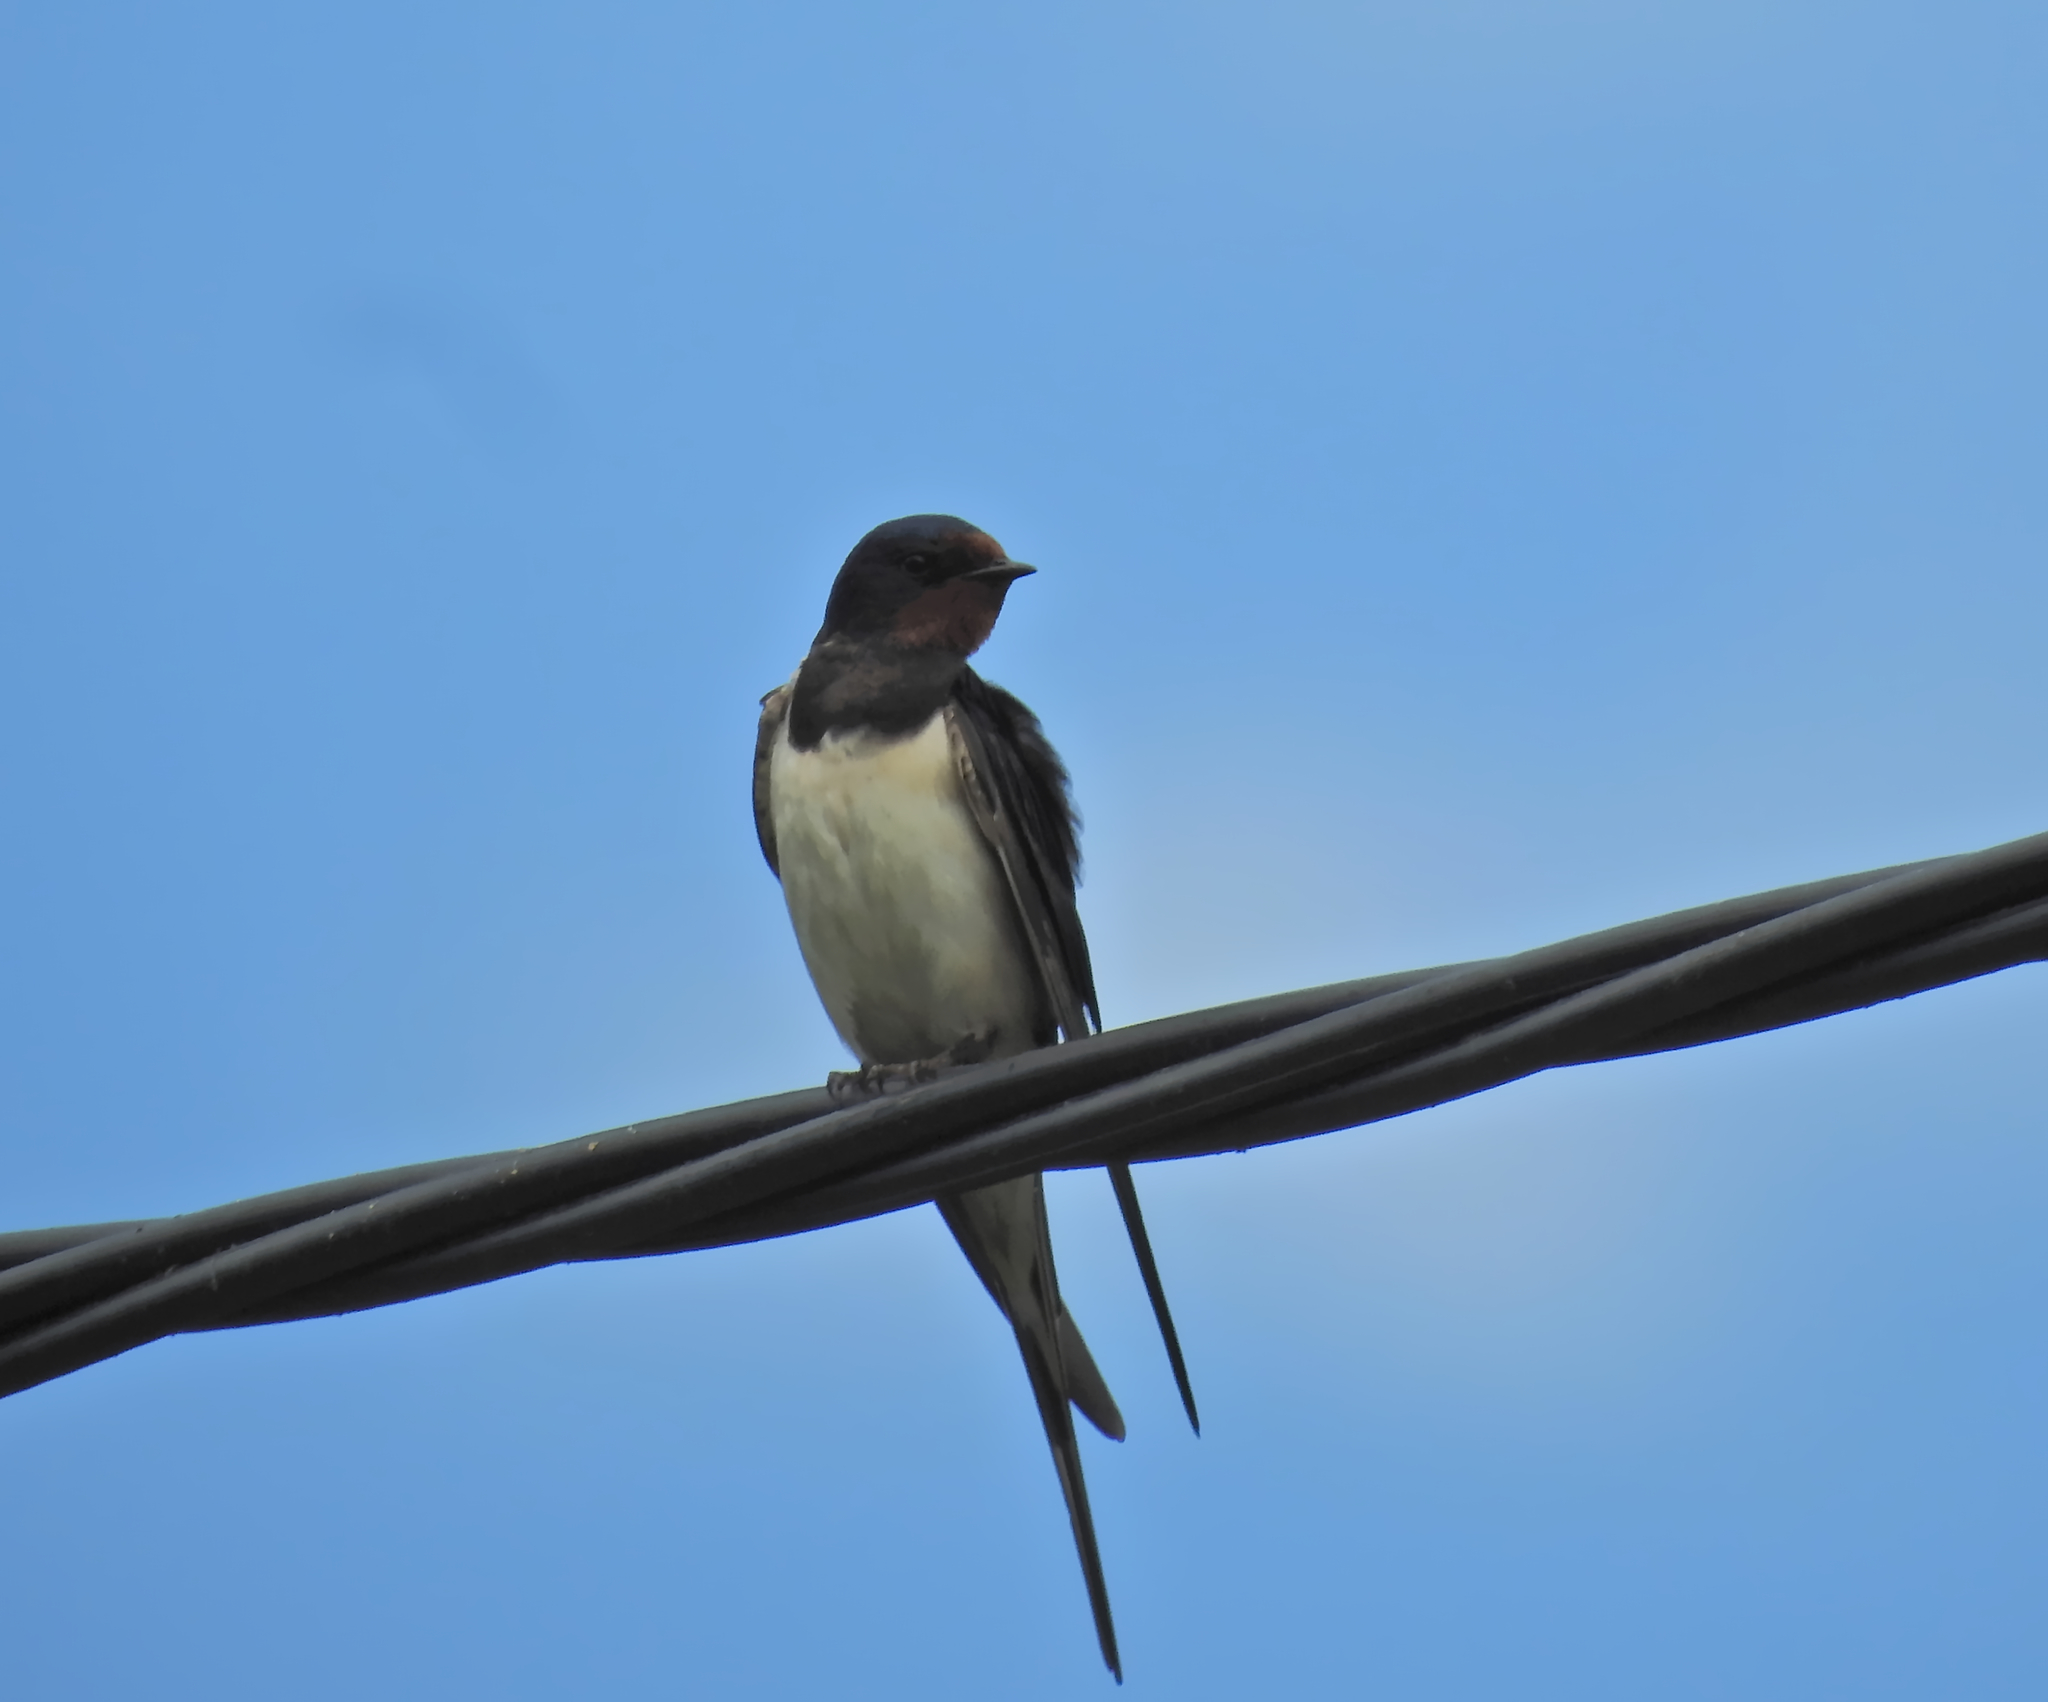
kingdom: Animalia
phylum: Chordata
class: Aves
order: Passeriformes
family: Hirundinidae
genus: Hirundo
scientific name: Hirundo rustica
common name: Barn swallow
